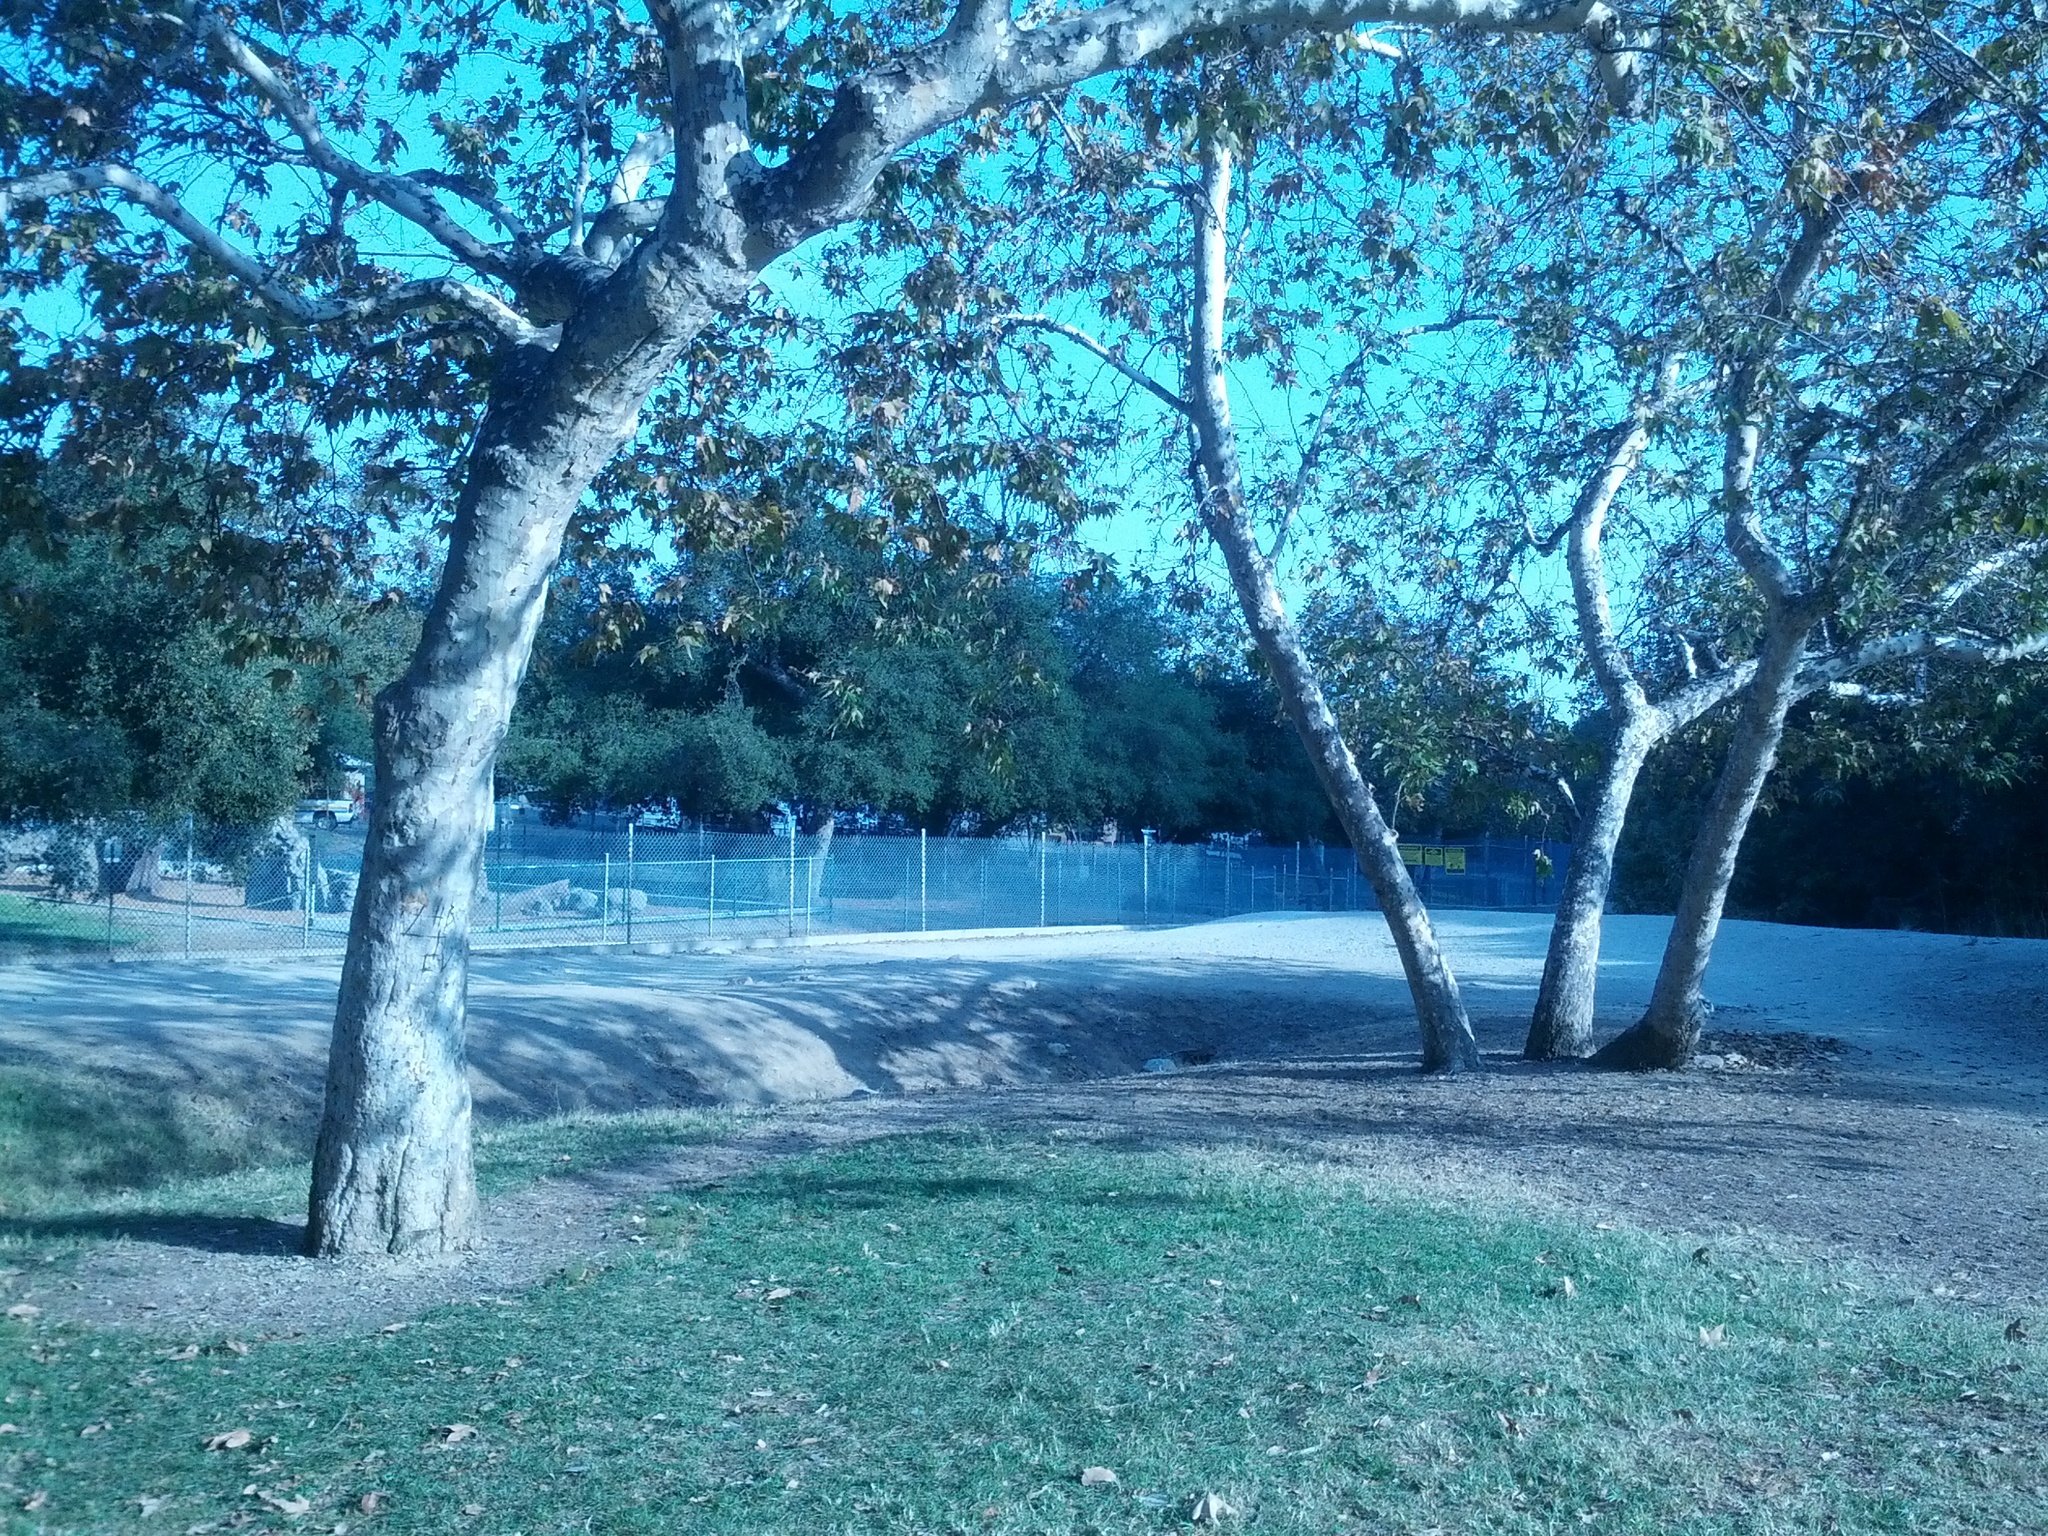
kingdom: Plantae
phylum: Tracheophyta
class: Magnoliopsida
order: Proteales
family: Platanaceae
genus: Platanus
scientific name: Platanus racemosa
